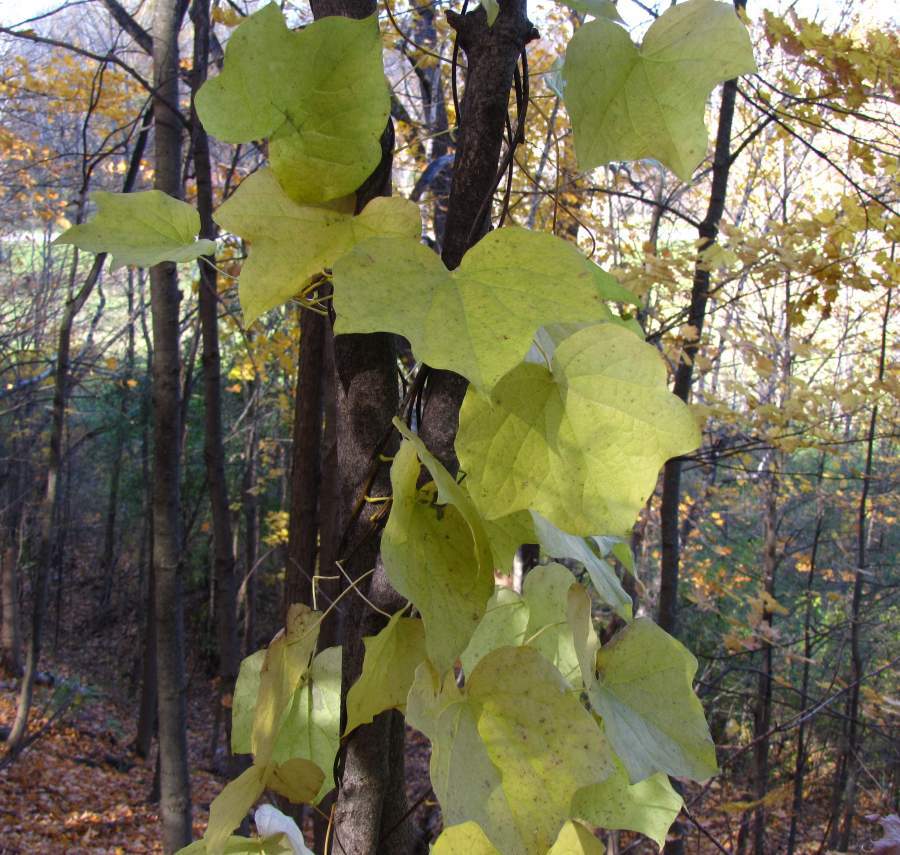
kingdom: Plantae
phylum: Tracheophyta
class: Magnoliopsida
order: Ranunculales
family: Menispermaceae
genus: Menispermum
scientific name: Menispermum canadense
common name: Moonseed
